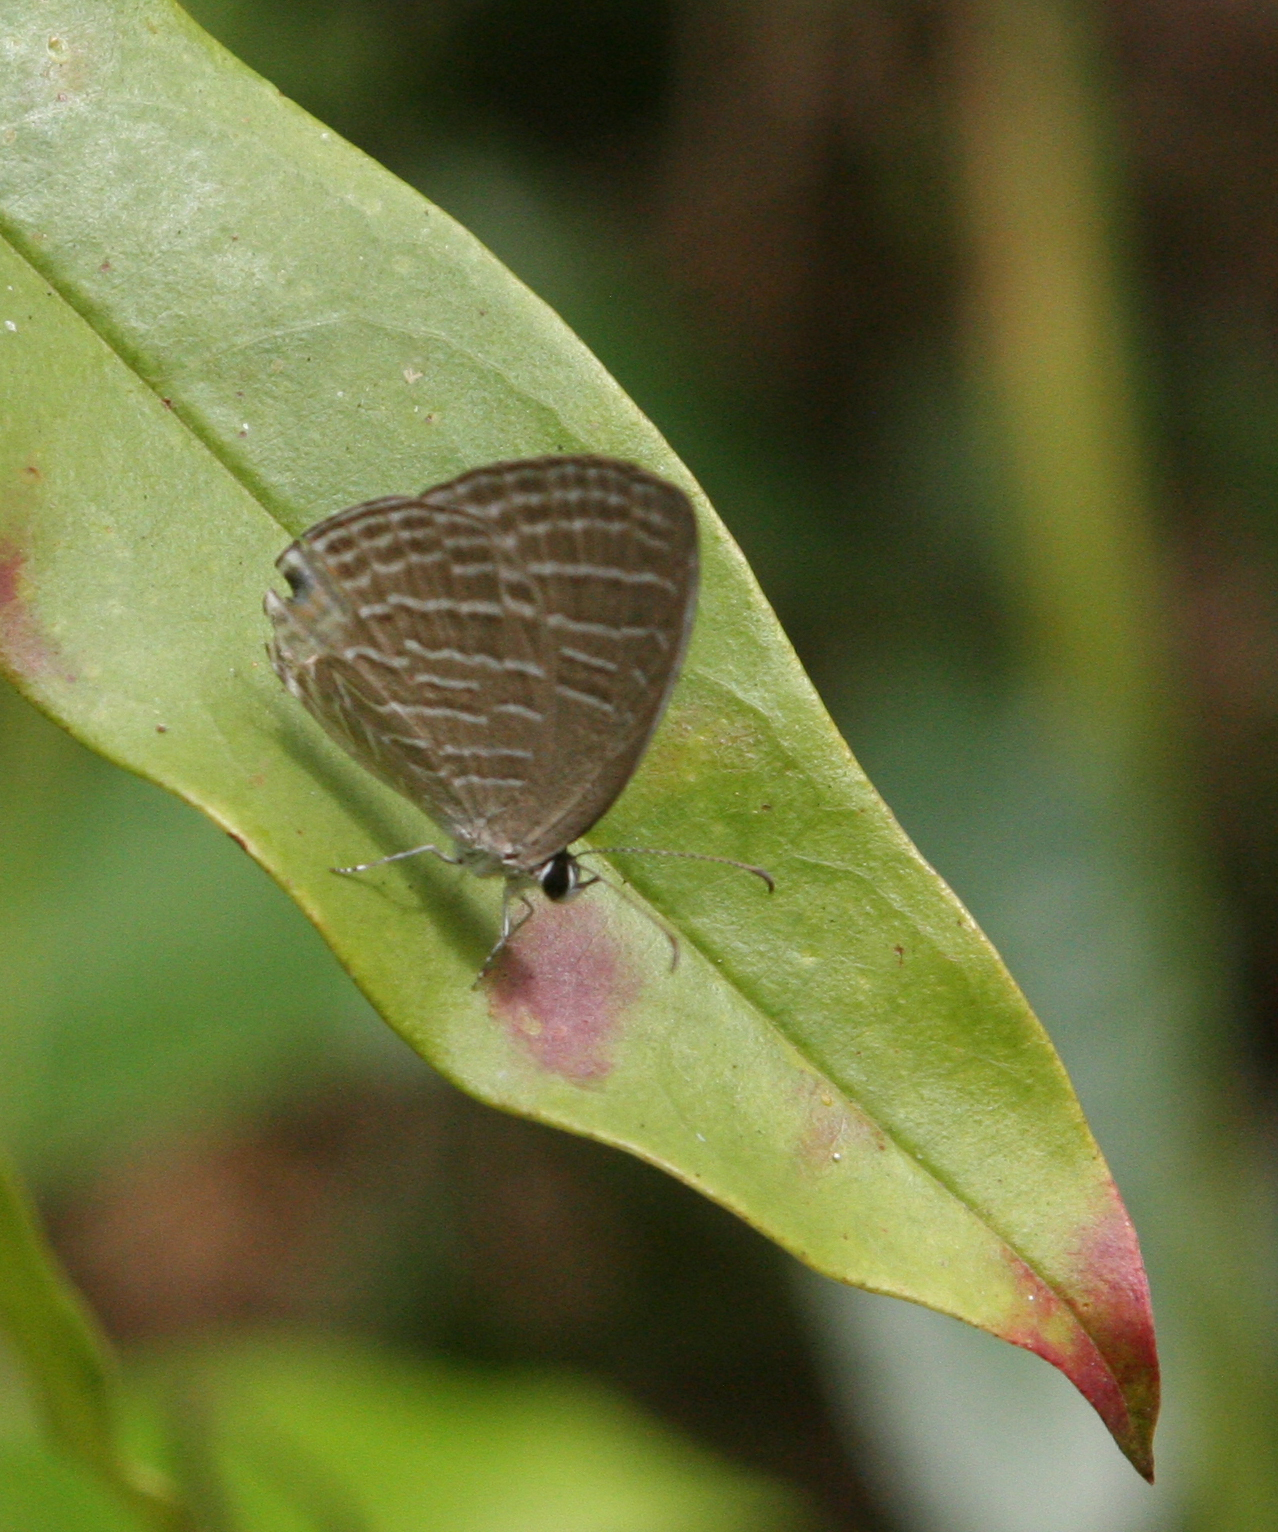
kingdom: Animalia
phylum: Arthropoda
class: Insecta
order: Lepidoptera
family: Lycaenidae
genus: Jamides
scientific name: Jamides celeno
